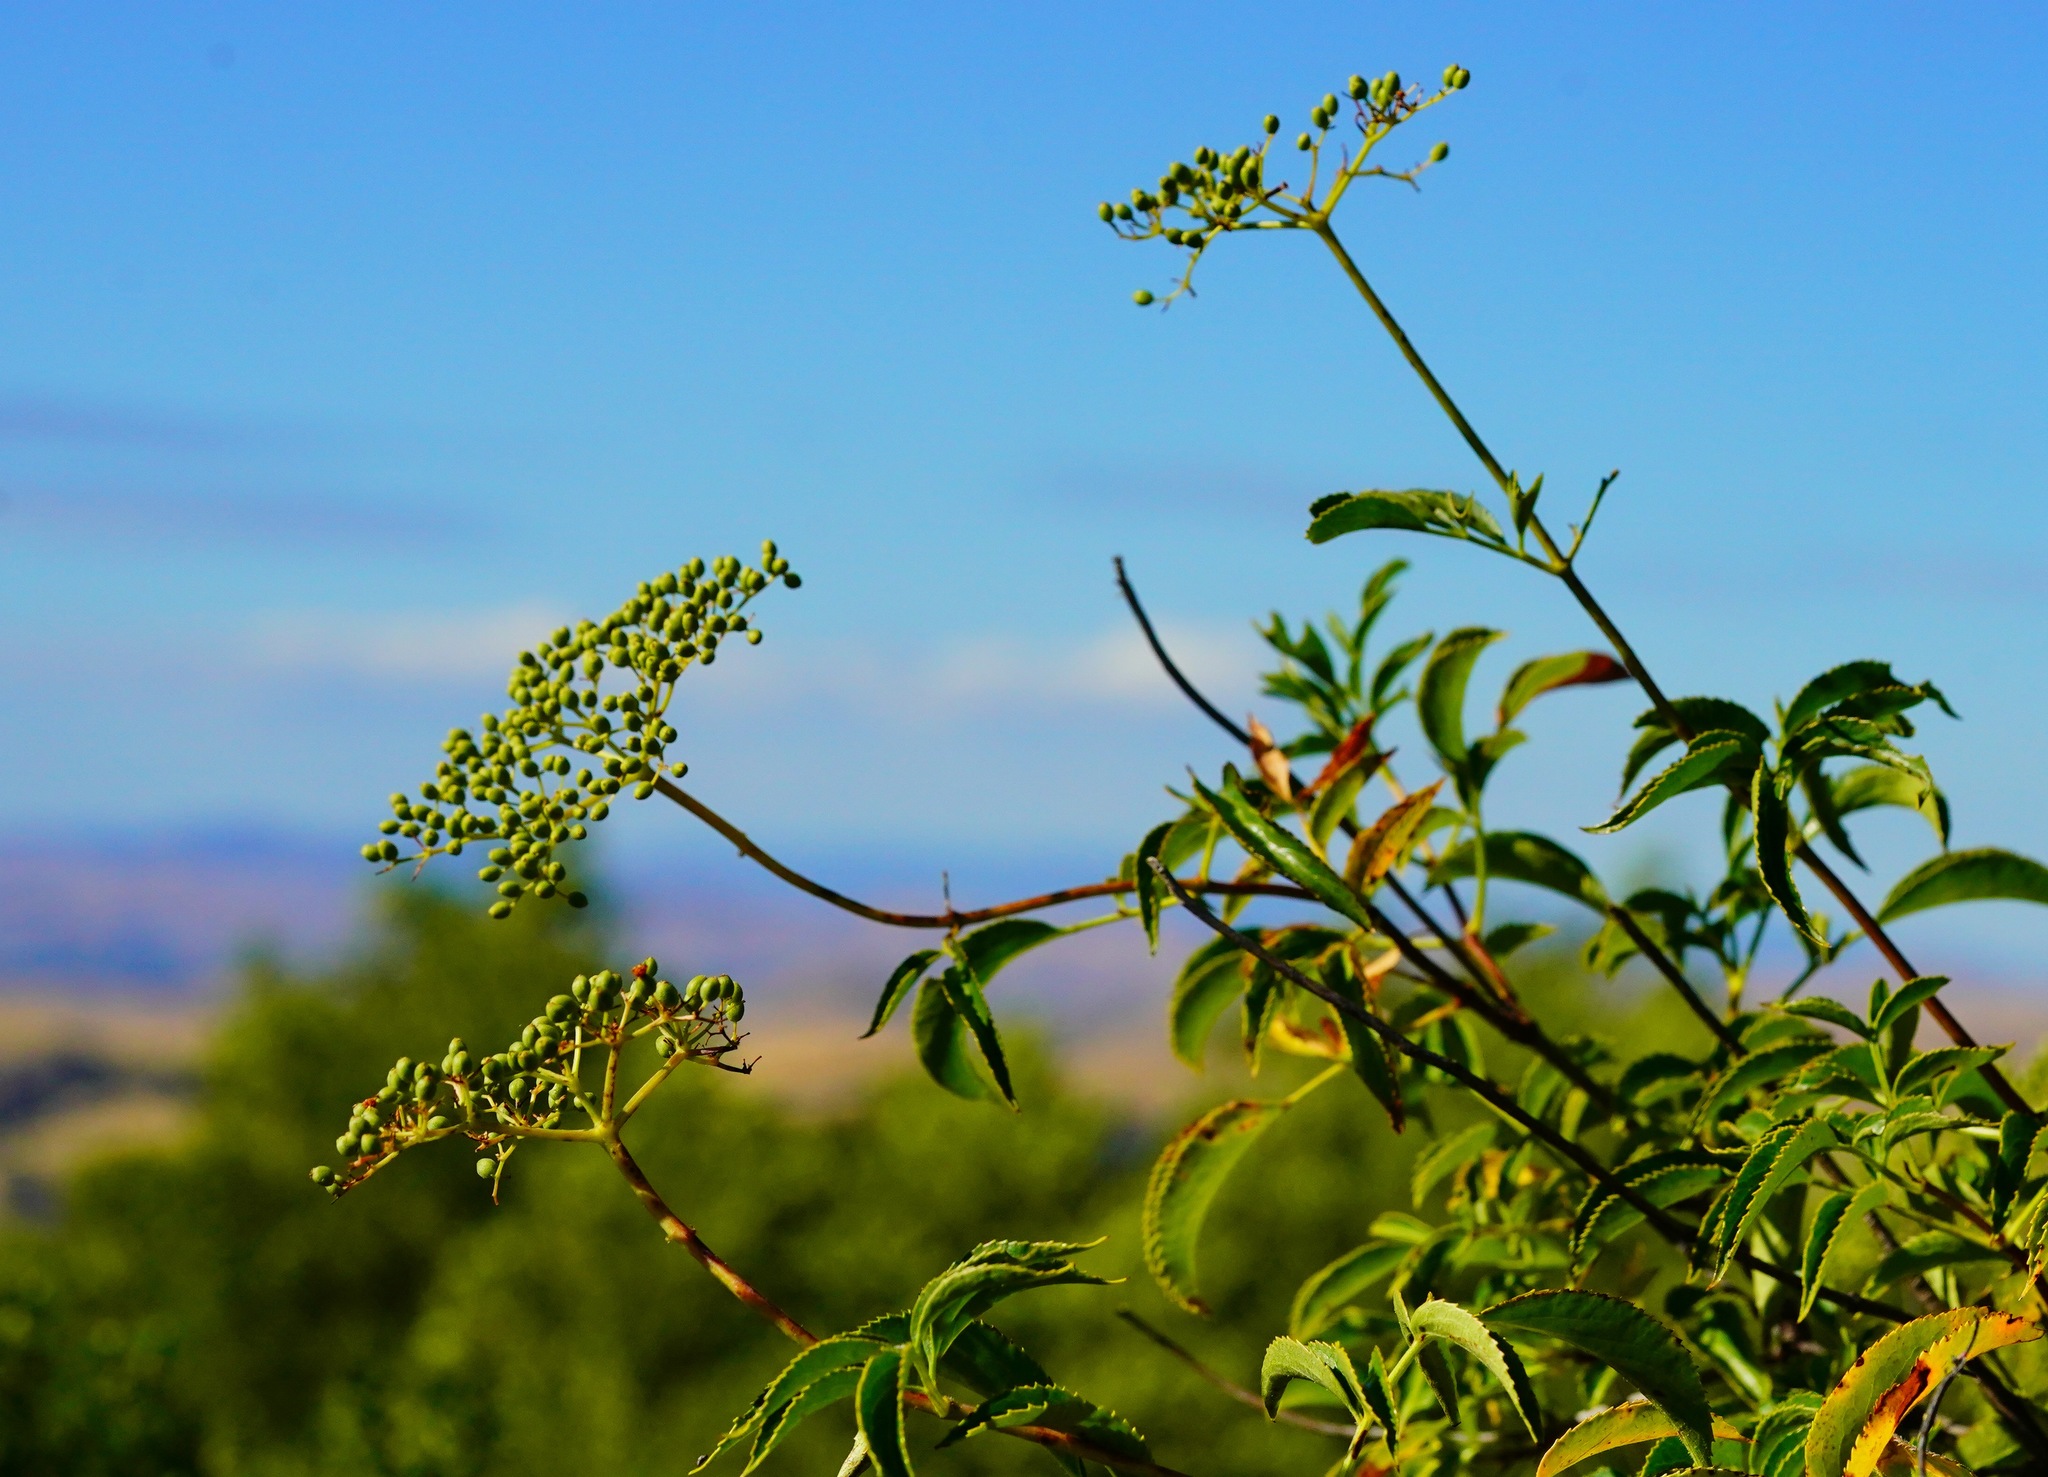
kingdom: Plantae
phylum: Tracheophyta
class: Magnoliopsida
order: Dipsacales
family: Viburnaceae
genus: Sambucus
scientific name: Sambucus cerulea
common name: Blue elder
